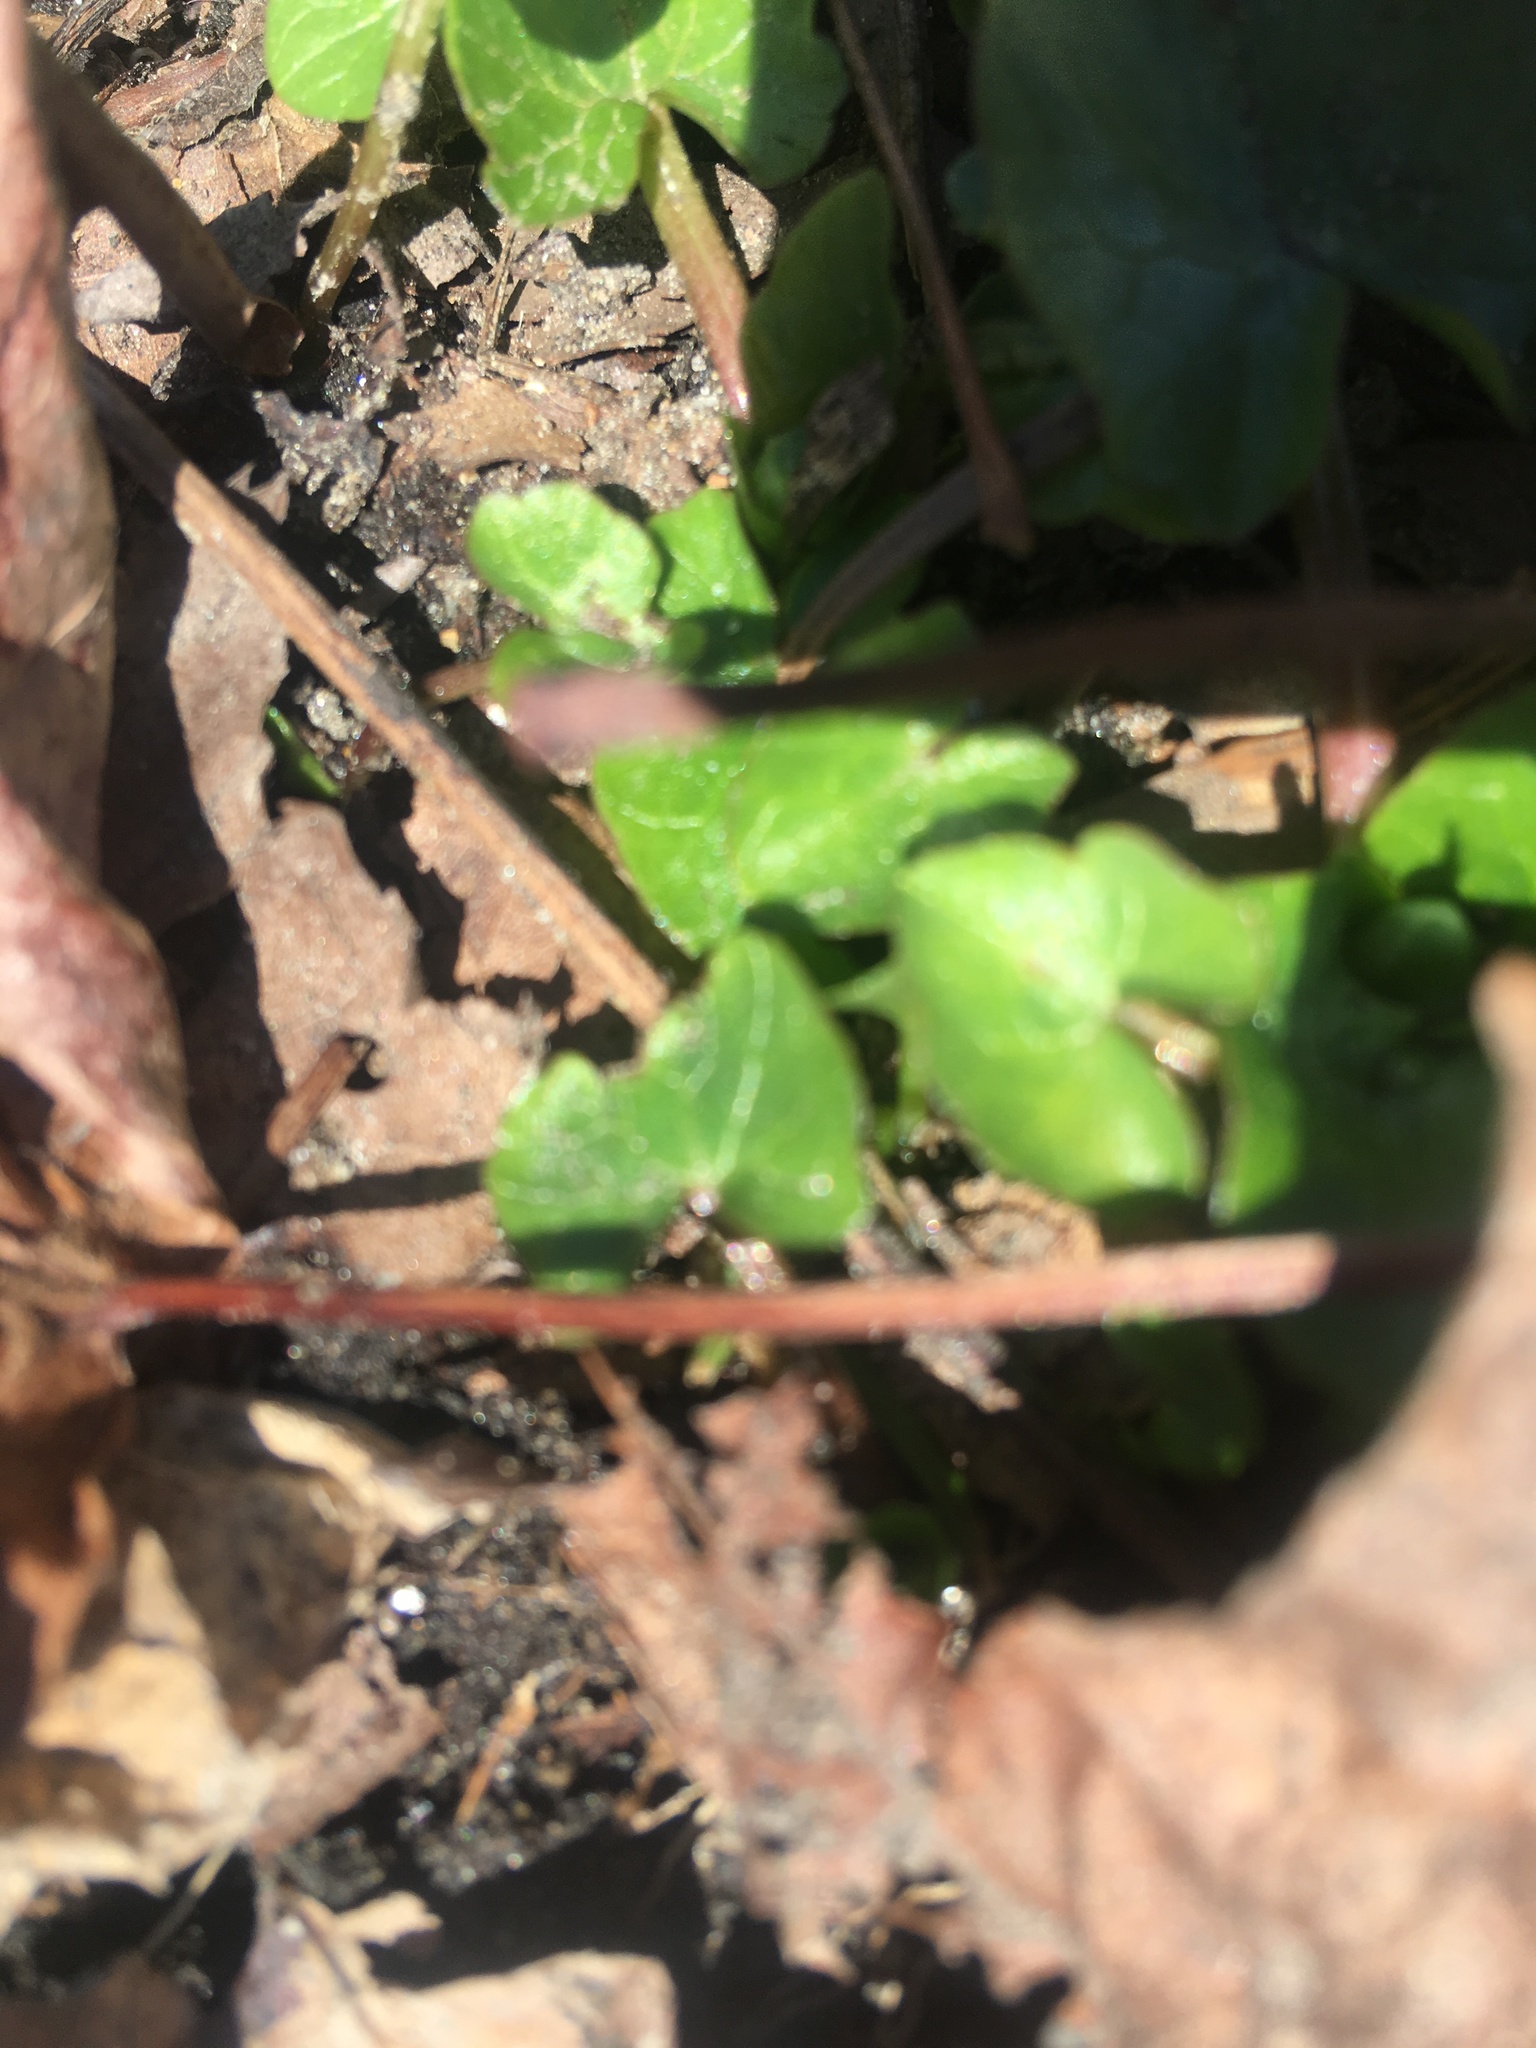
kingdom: Plantae
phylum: Tracheophyta
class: Magnoliopsida
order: Ranunculales
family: Ranunculaceae
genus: Ficaria
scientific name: Ficaria verna
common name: Lesser celandine
